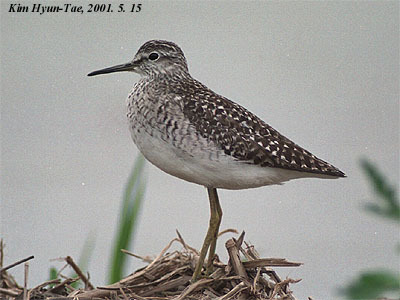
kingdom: Animalia
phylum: Chordata
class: Aves
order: Charadriiformes
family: Scolopacidae
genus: Tringa
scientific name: Tringa glareola
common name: Wood sandpiper
